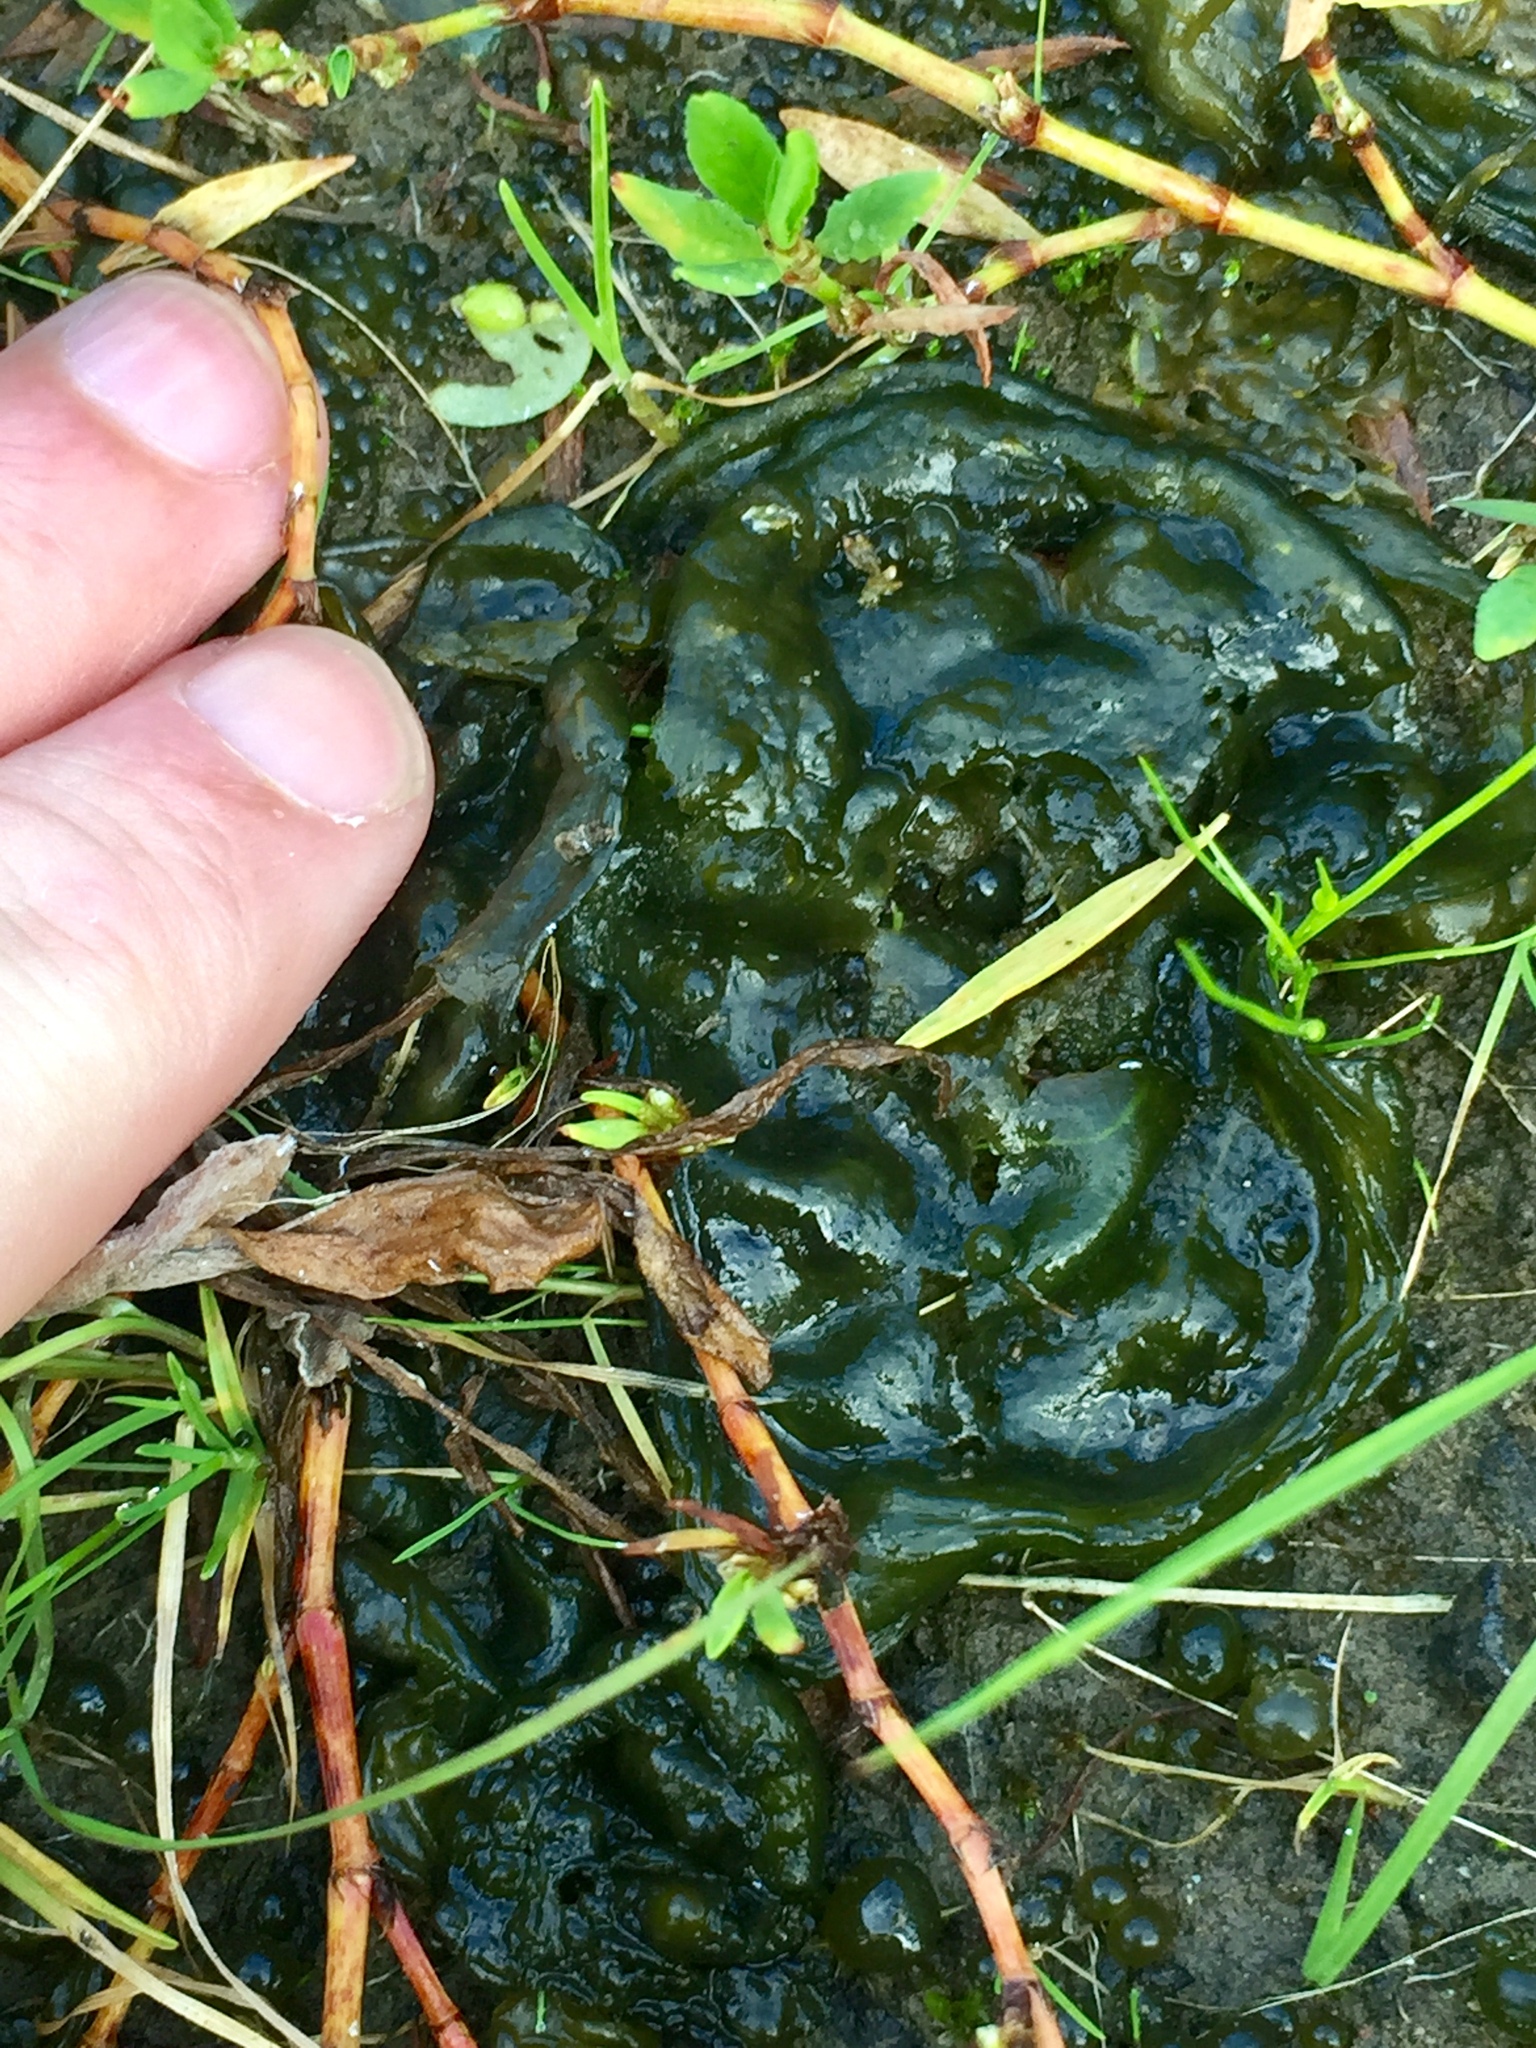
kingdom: Bacteria
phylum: Cyanobacteria
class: Cyanobacteriia
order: Cyanobacteriales
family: Nostocaceae
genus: Nostoc
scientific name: Nostoc commune
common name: Star jelly
